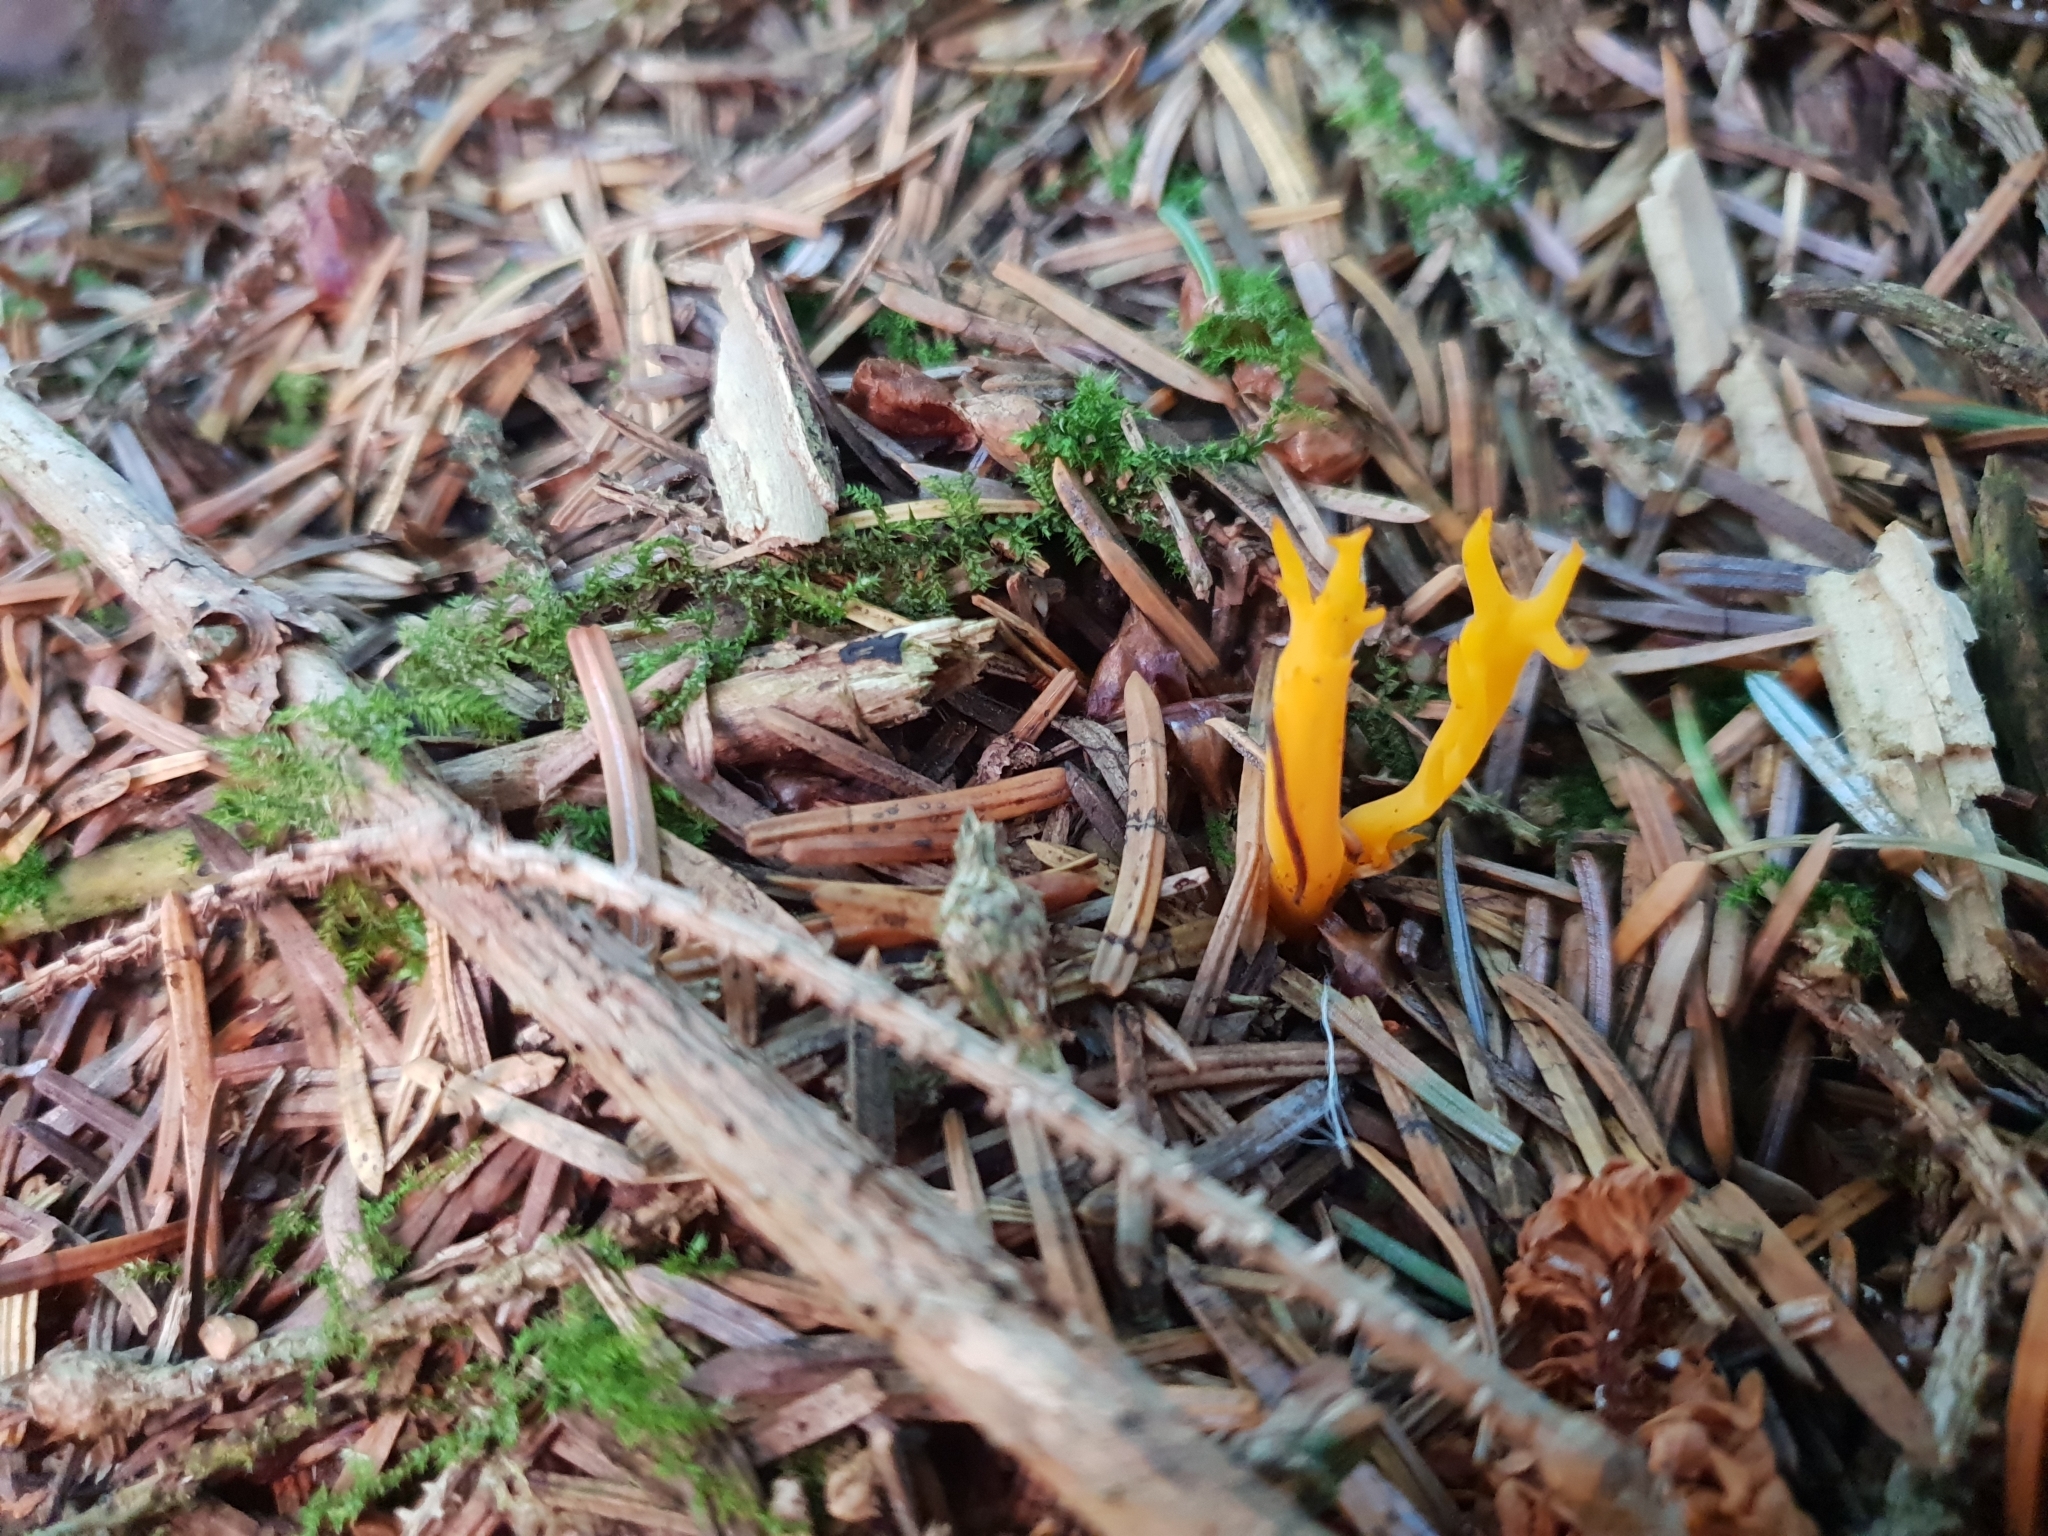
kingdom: Fungi
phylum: Basidiomycota
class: Dacrymycetes
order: Dacrymycetales
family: Dacrymycetaceae
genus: Calocera
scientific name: Calocera viscosa
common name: Yellow stagshorn
